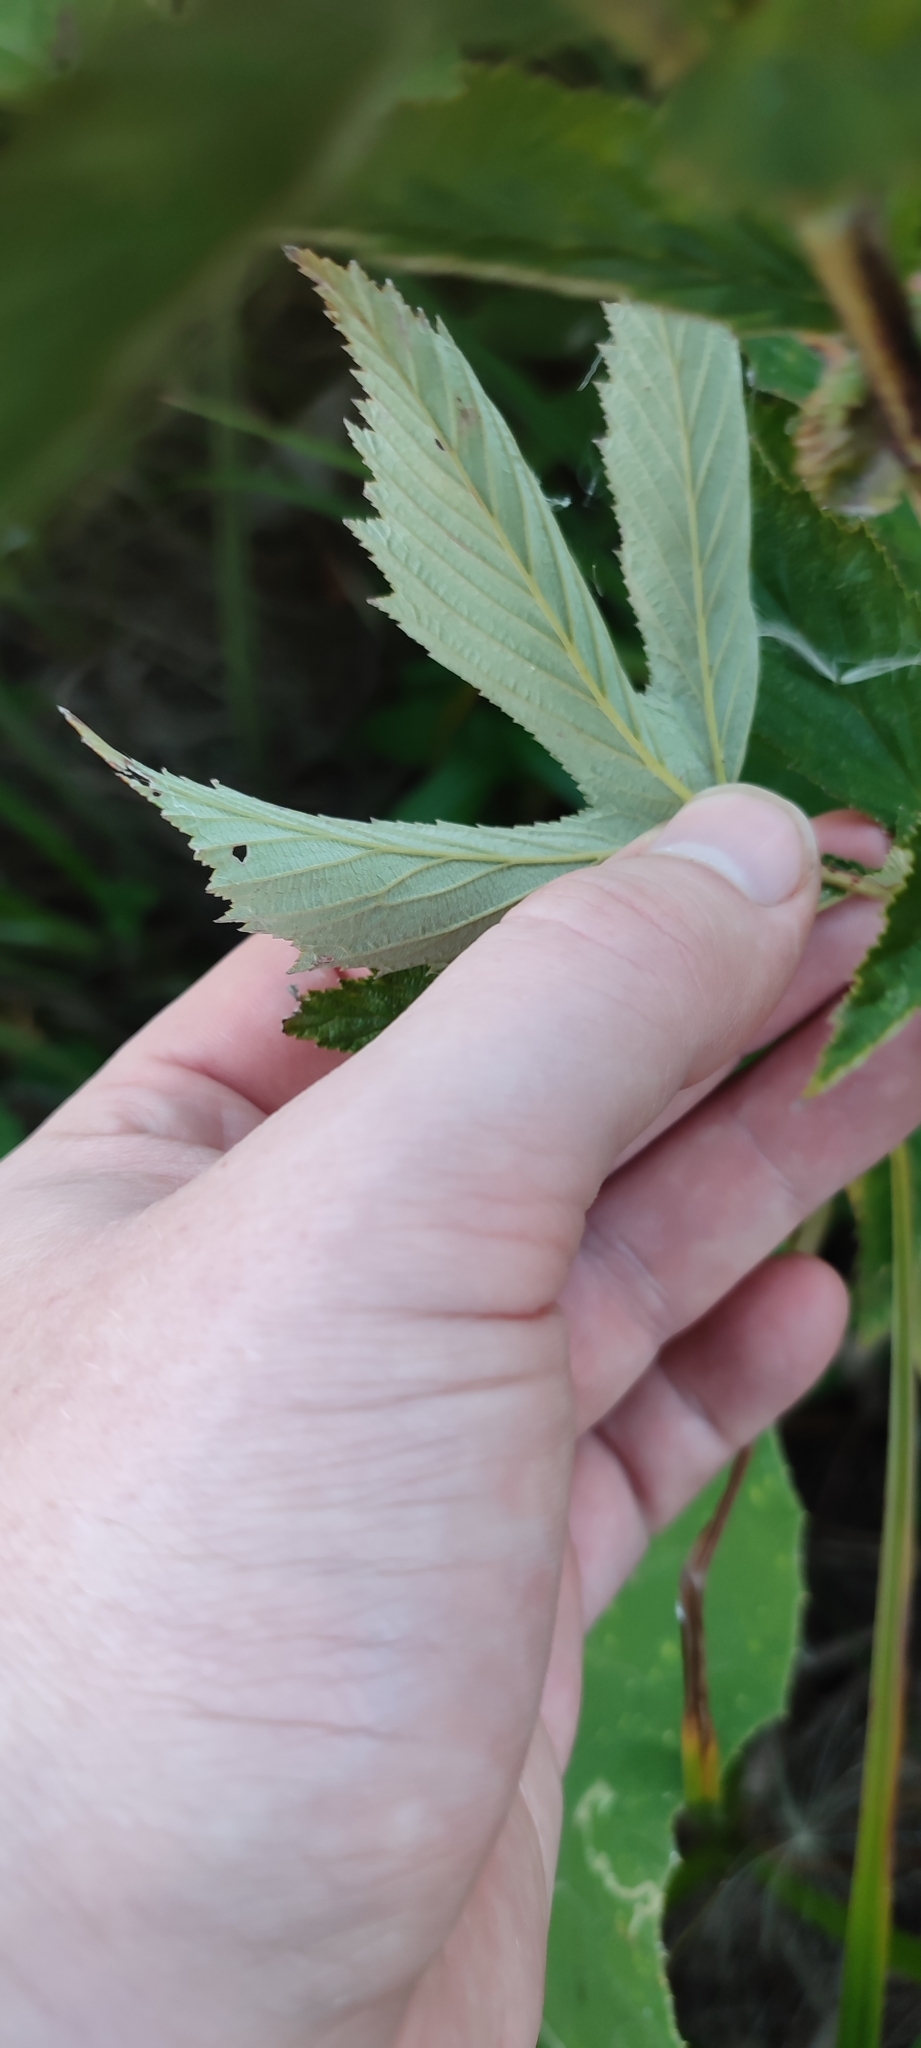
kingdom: Plantae
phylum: Tracheophyta
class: Magnoliopsida
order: Rosales
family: Rosaceae
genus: Filipendula
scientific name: Filipendula ulmaria
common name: Meadowsweet
